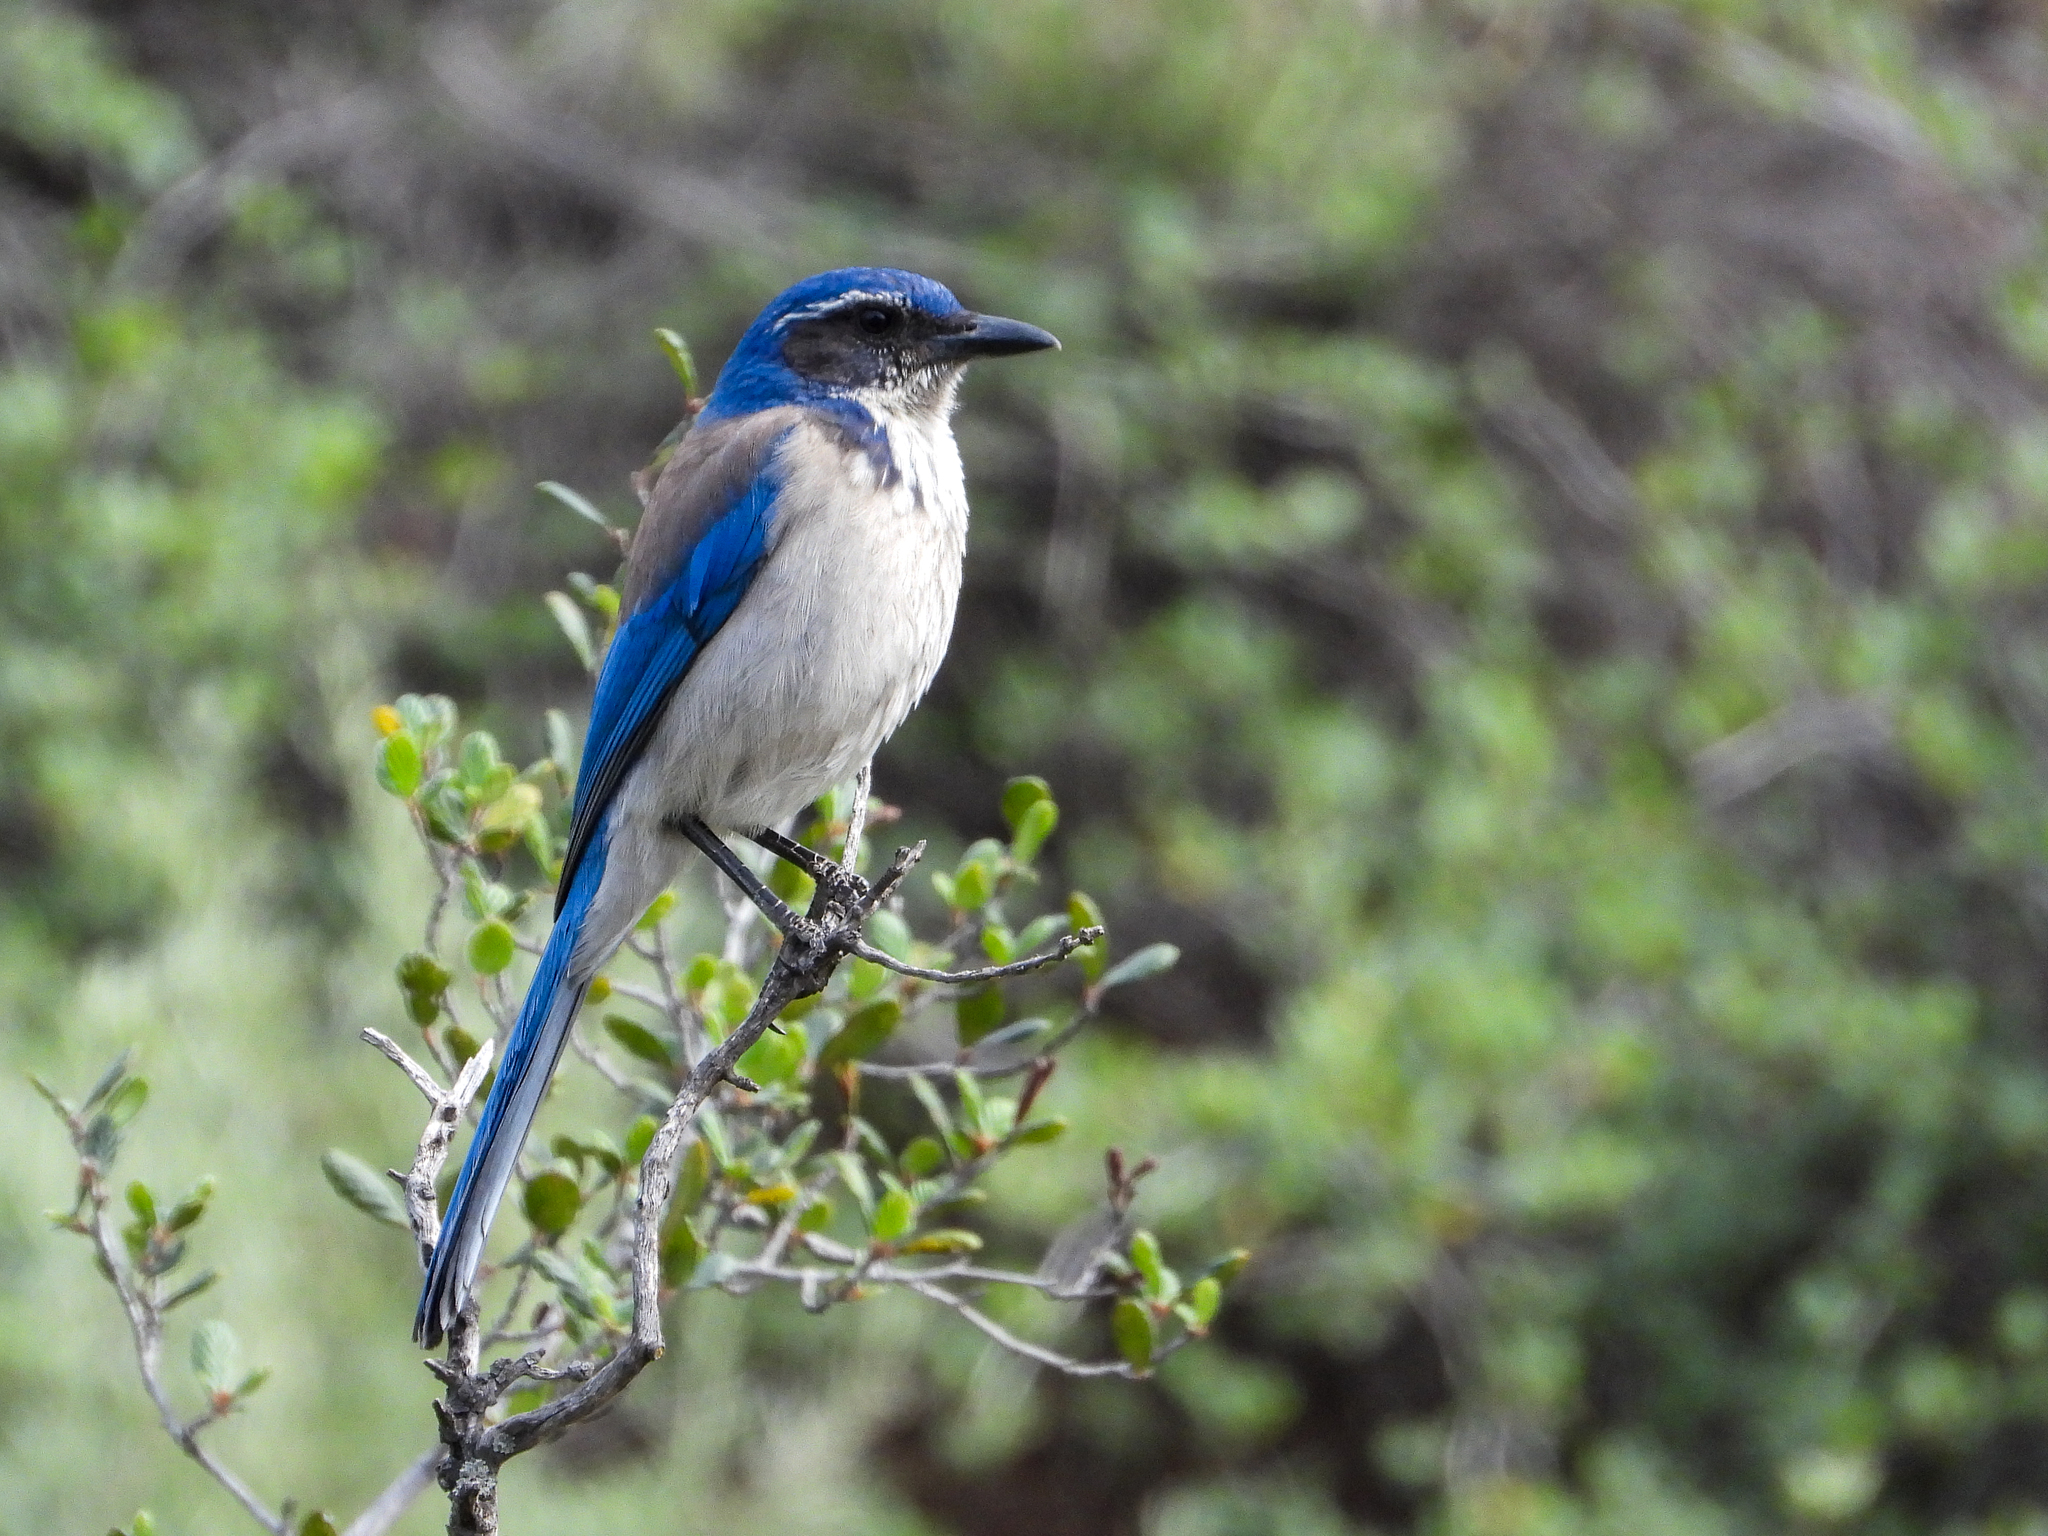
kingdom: Animalia
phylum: Chordata
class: Aves
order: Passeriformes
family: Corvidae
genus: Aphelocoma
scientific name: Aphelocoma californica
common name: California scrub-jay
